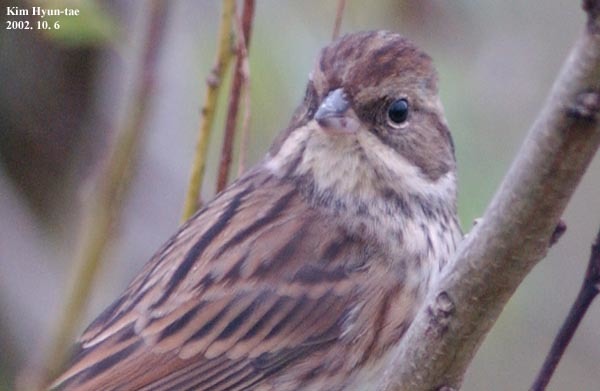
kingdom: Animalia
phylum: Chordata
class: Aves
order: Passeriformes
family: Emberizidae
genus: Emberiza
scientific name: Emberiza spodocephala
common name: Black-faced bunting
